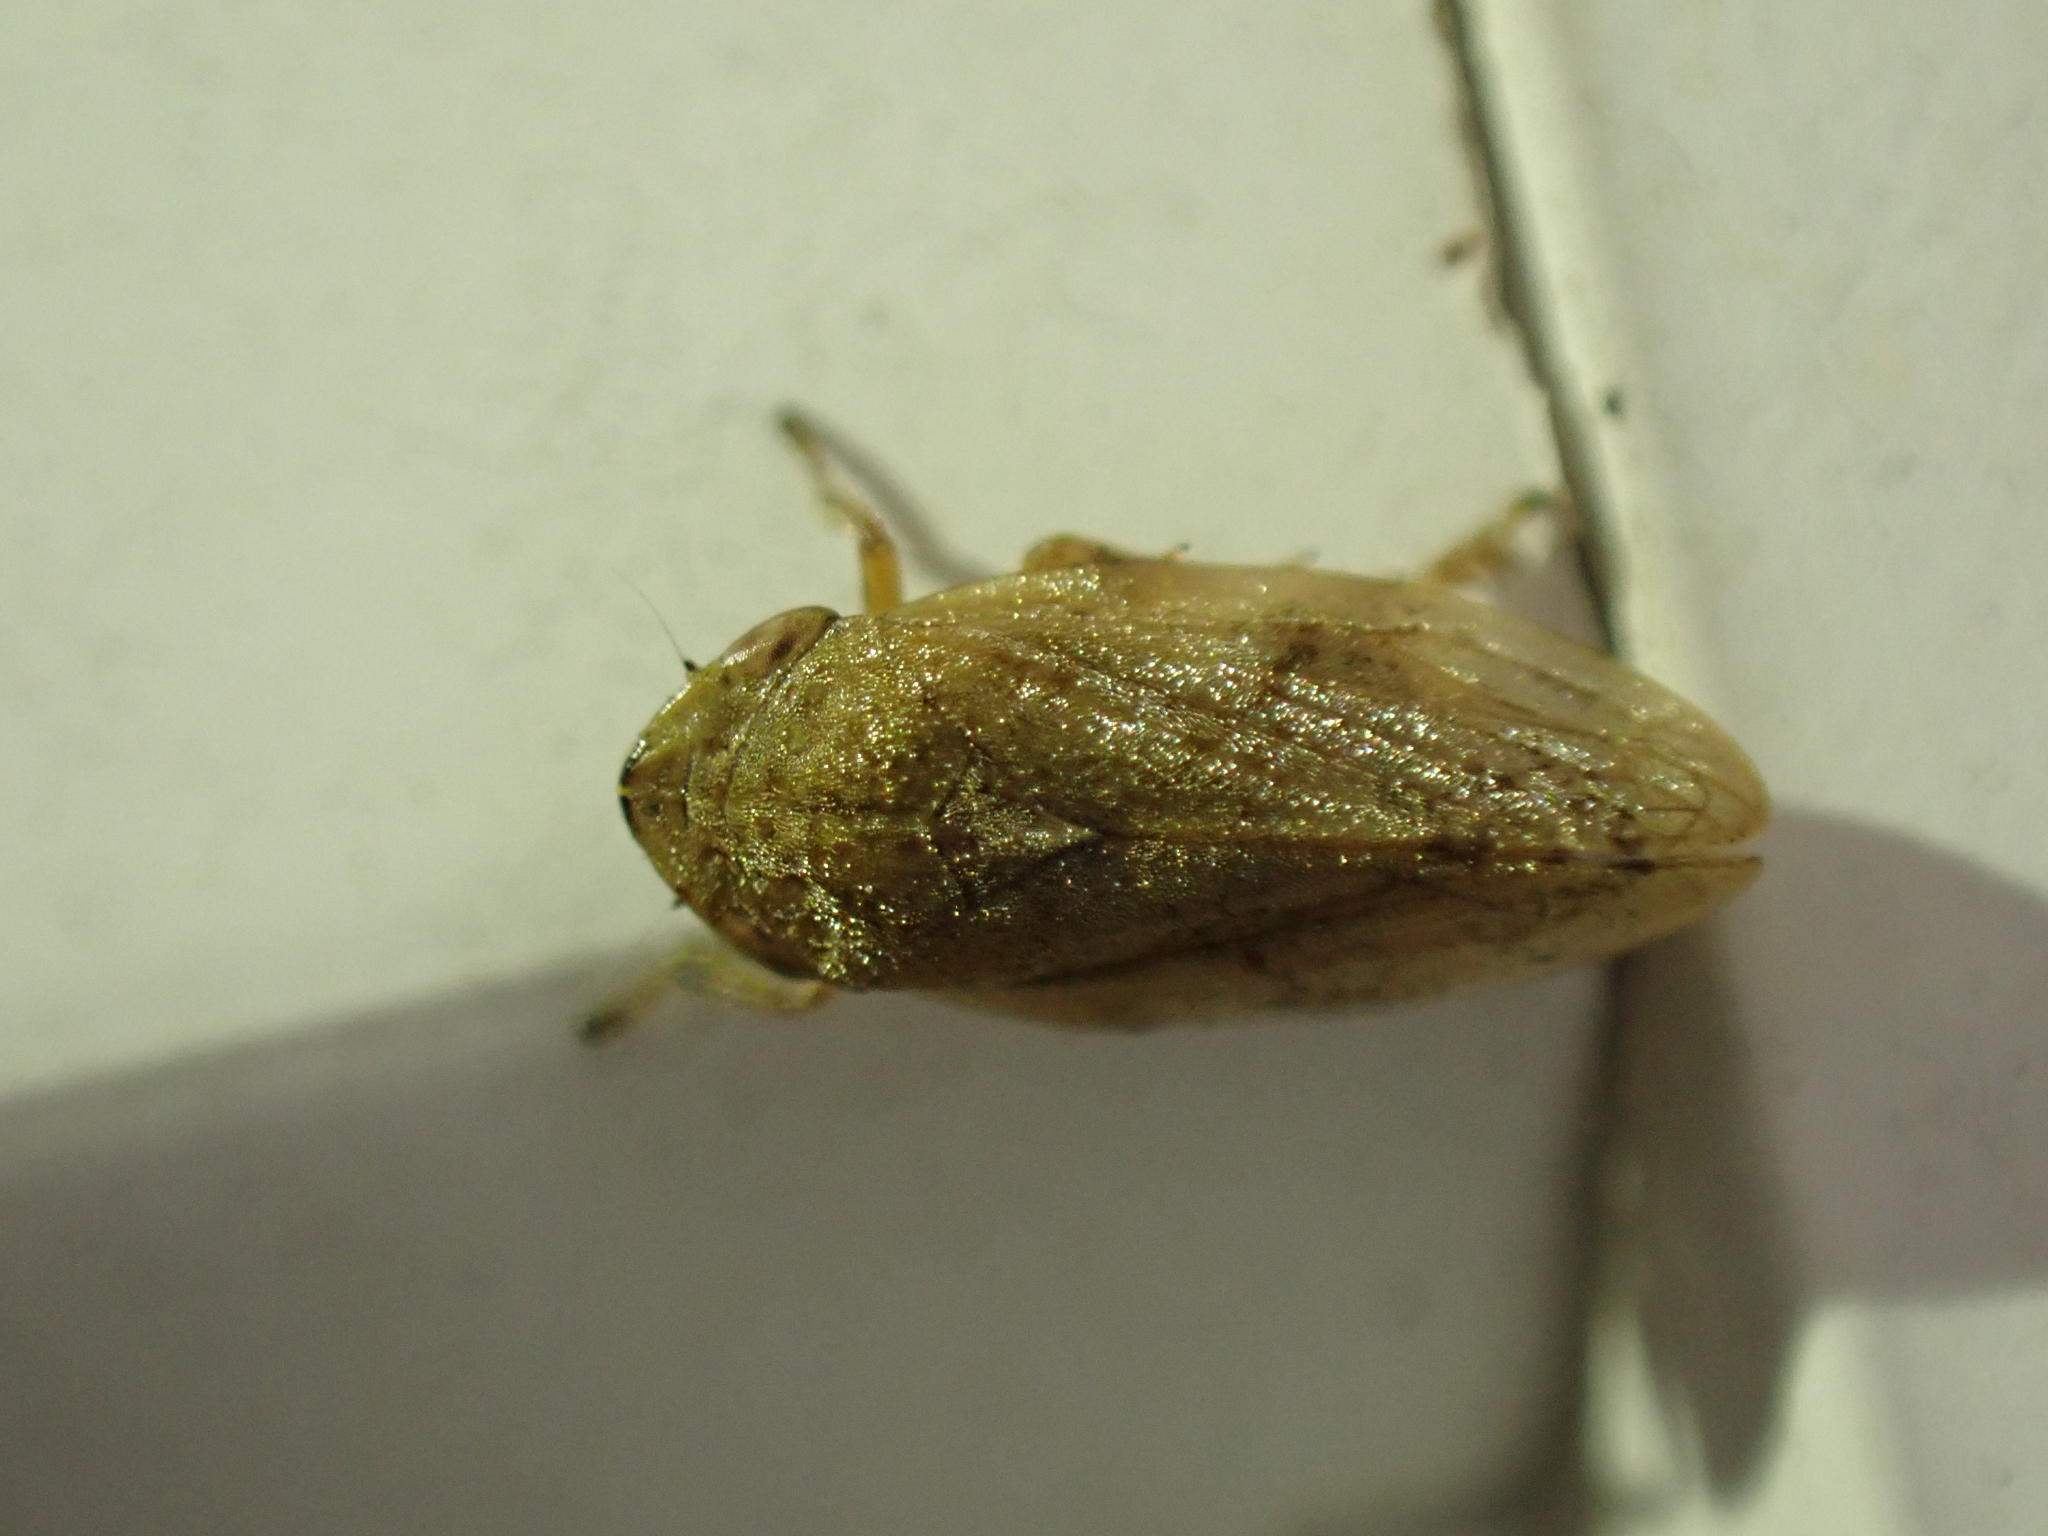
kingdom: Animalia
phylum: Arthropoda
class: Insecta
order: Hemiptera
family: Aphrophoridae
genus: Philaenus
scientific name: Philaenus spumarius
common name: Meadow spittlebug
